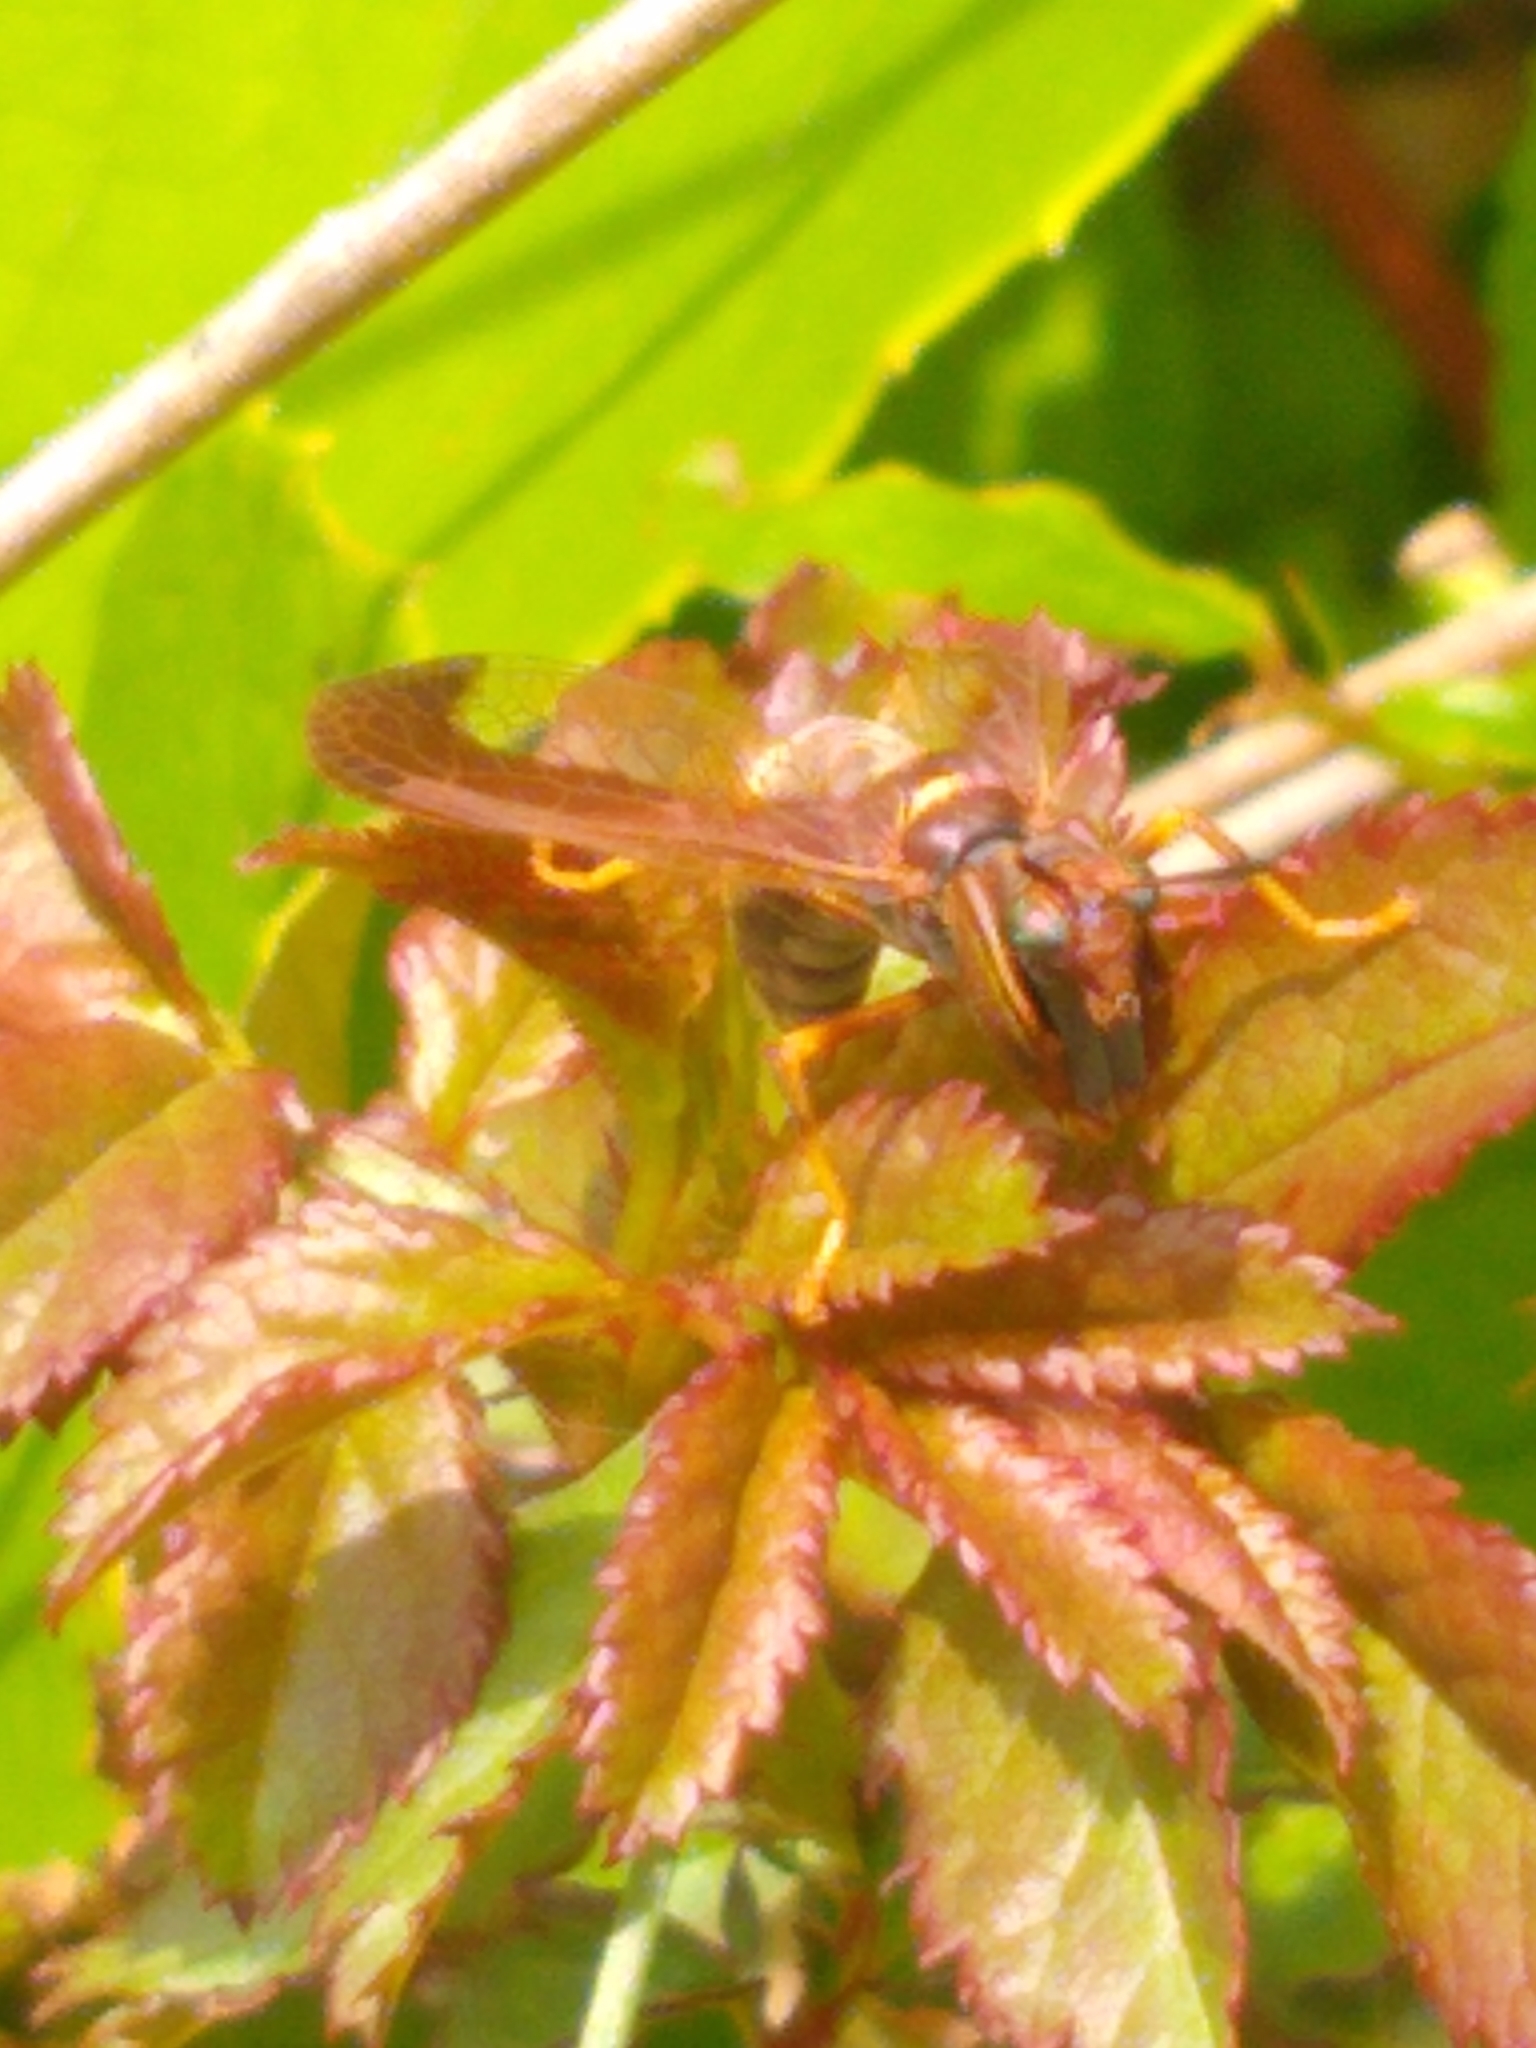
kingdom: Animalia
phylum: Arthropoda
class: Insecta
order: Neuroptera
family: Mantispidae
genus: Climaciella
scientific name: Climaciella brunnea
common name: Brown wasp mantidfly
